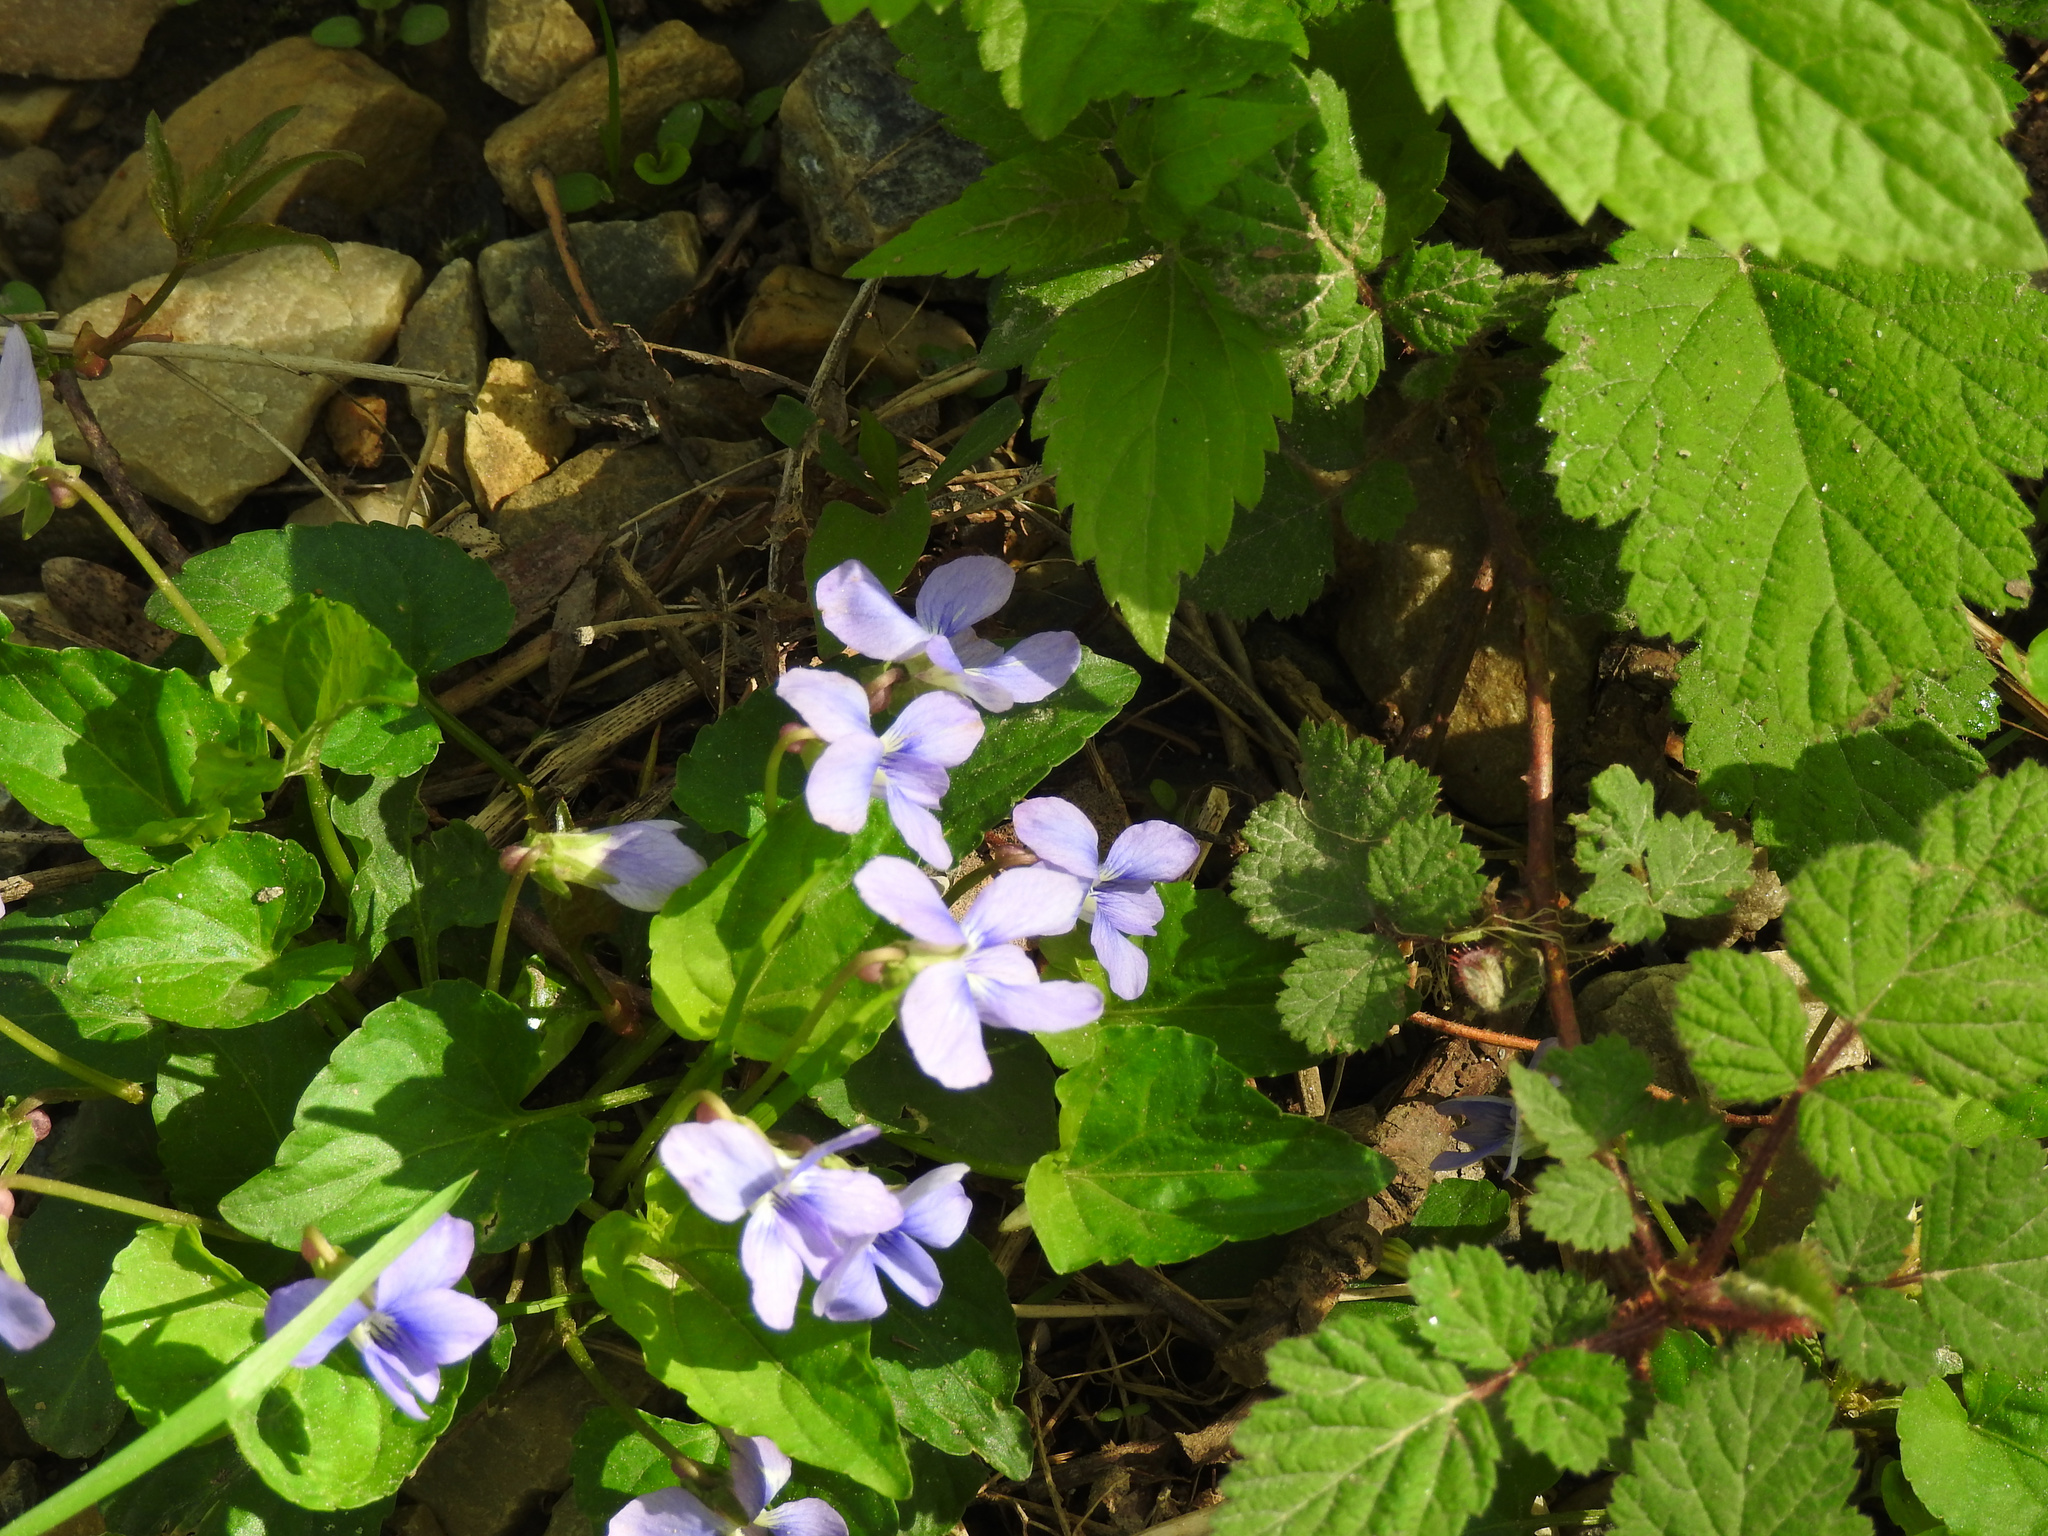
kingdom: Plantae
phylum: Tracheophyta
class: Magnoliopsida
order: Malpighiales
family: Violaceae
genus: Viola
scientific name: Viola sororia
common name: Dooryard violet
